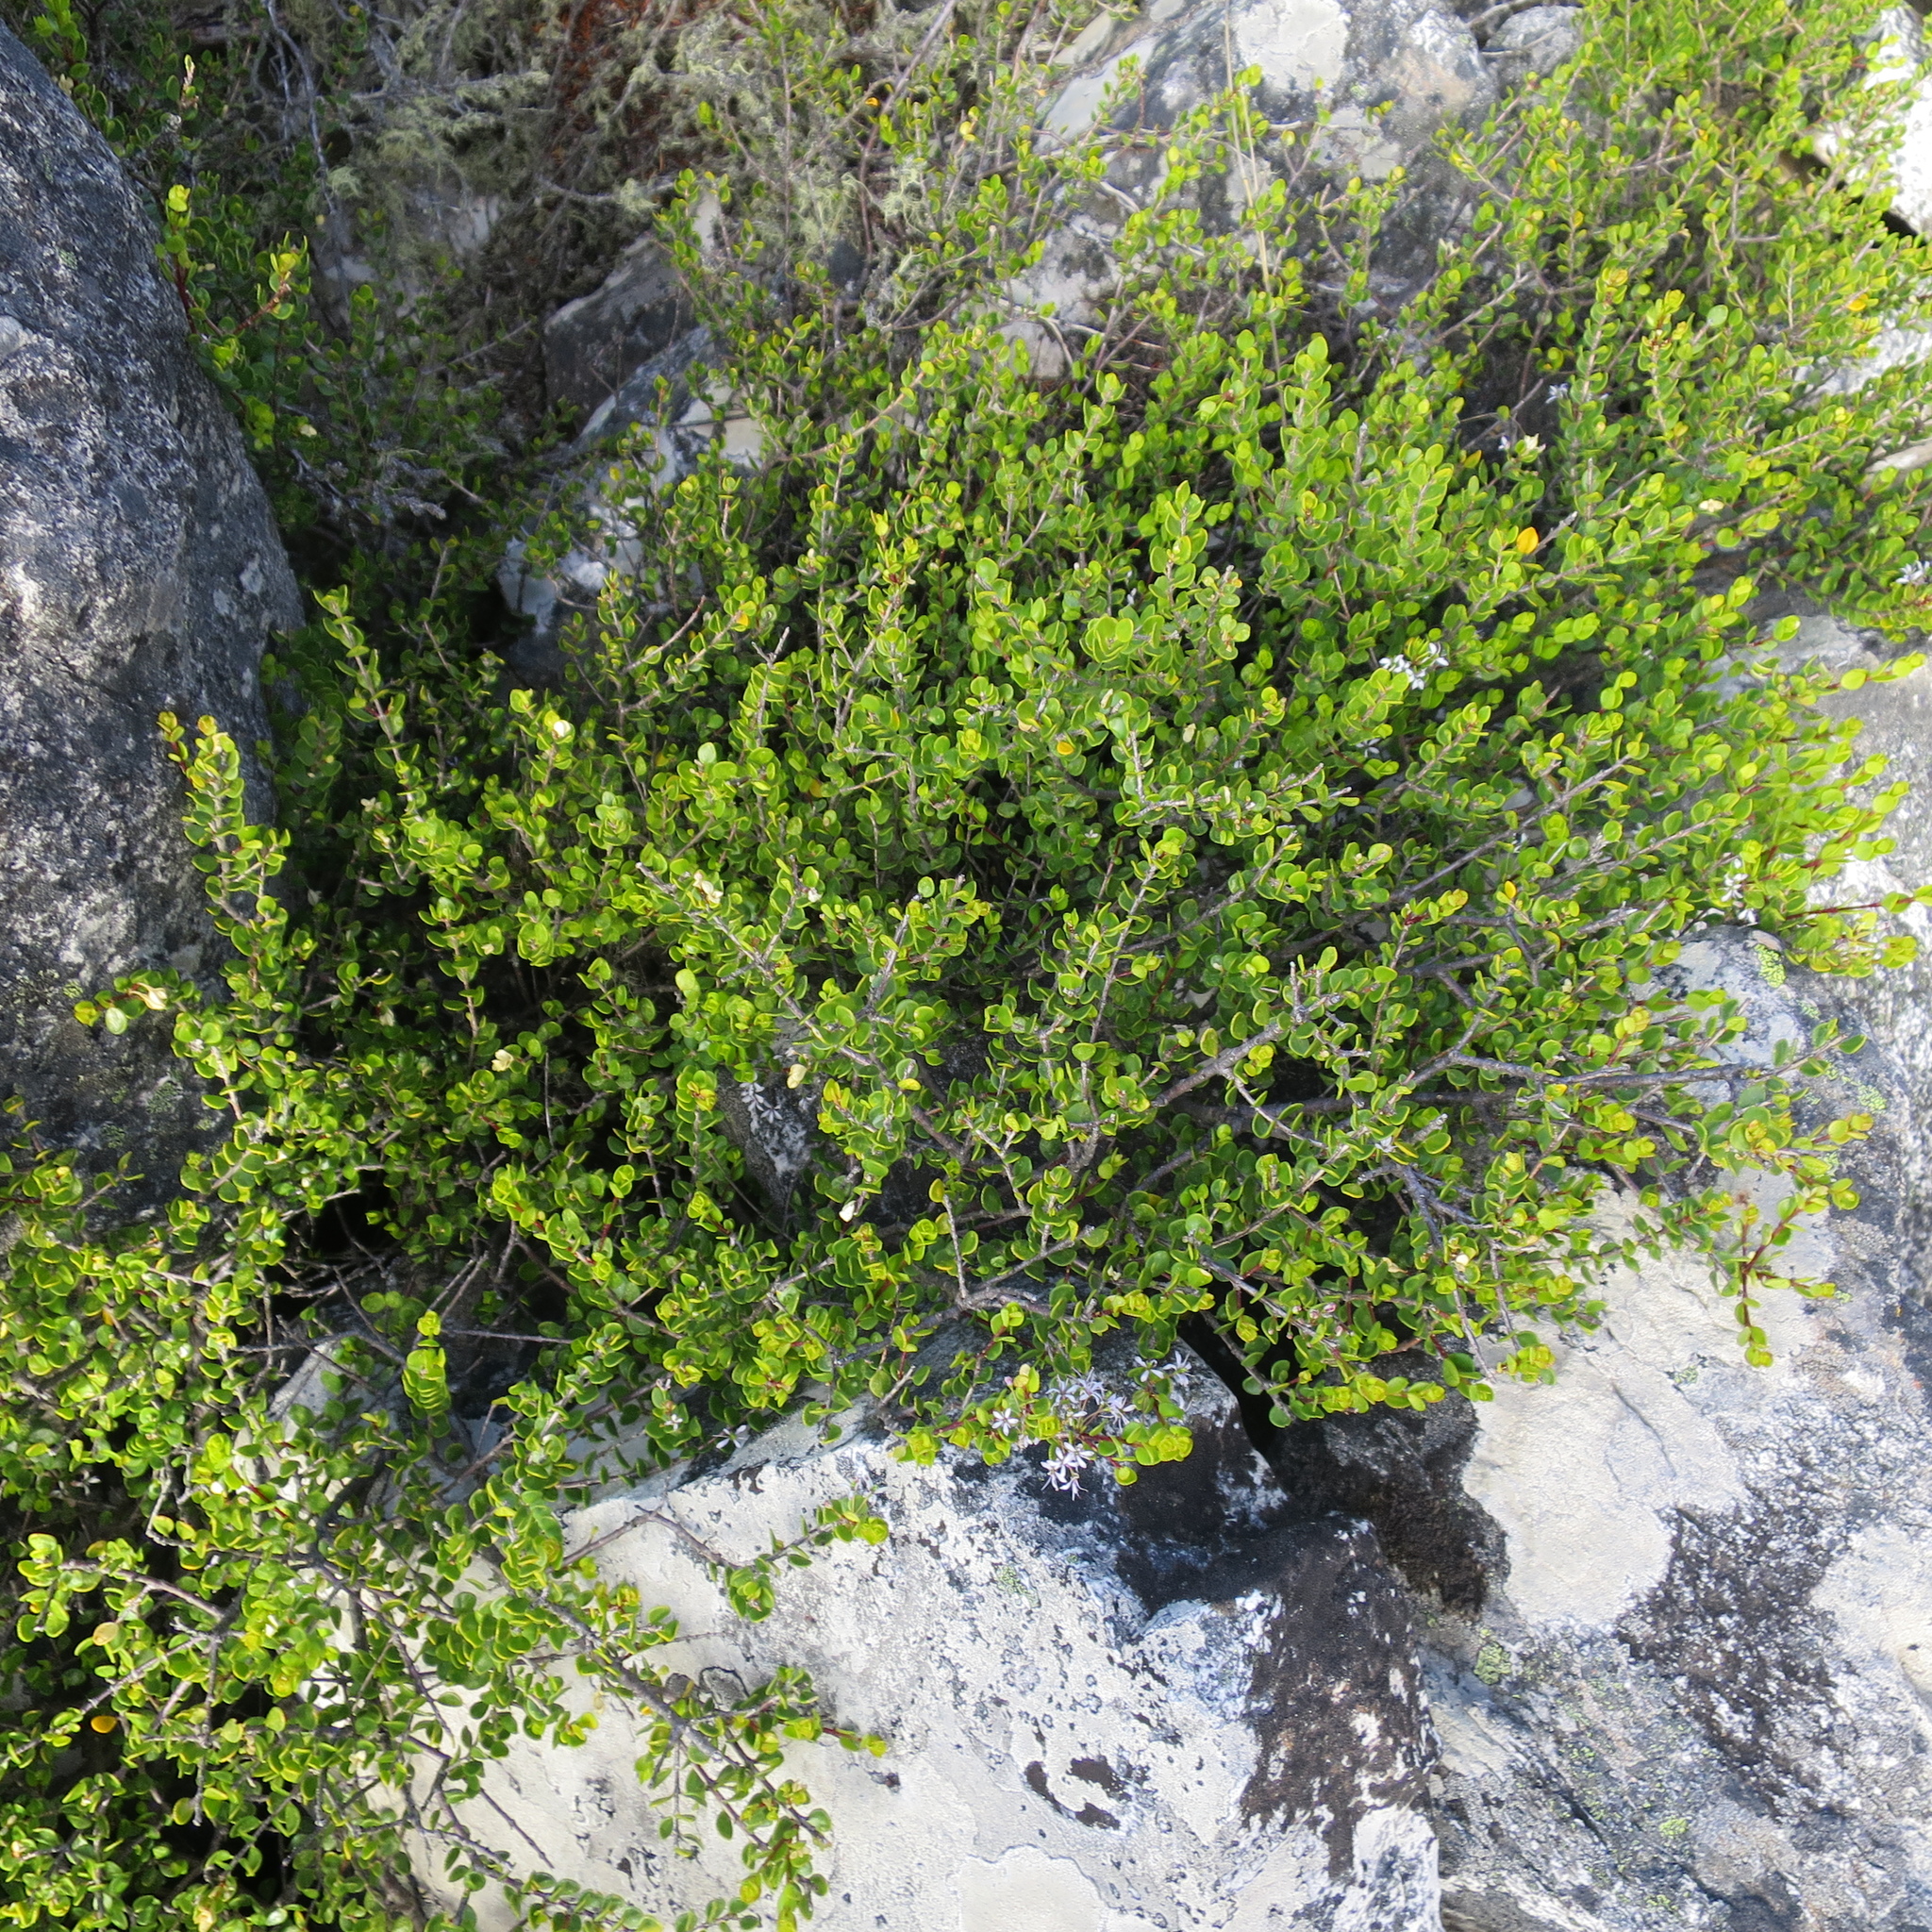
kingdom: Plantae
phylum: Tracheophyta
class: Magnoliopsida
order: Sapindales
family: Rutaceae
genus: Agathosma
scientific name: Agathosma ovata
